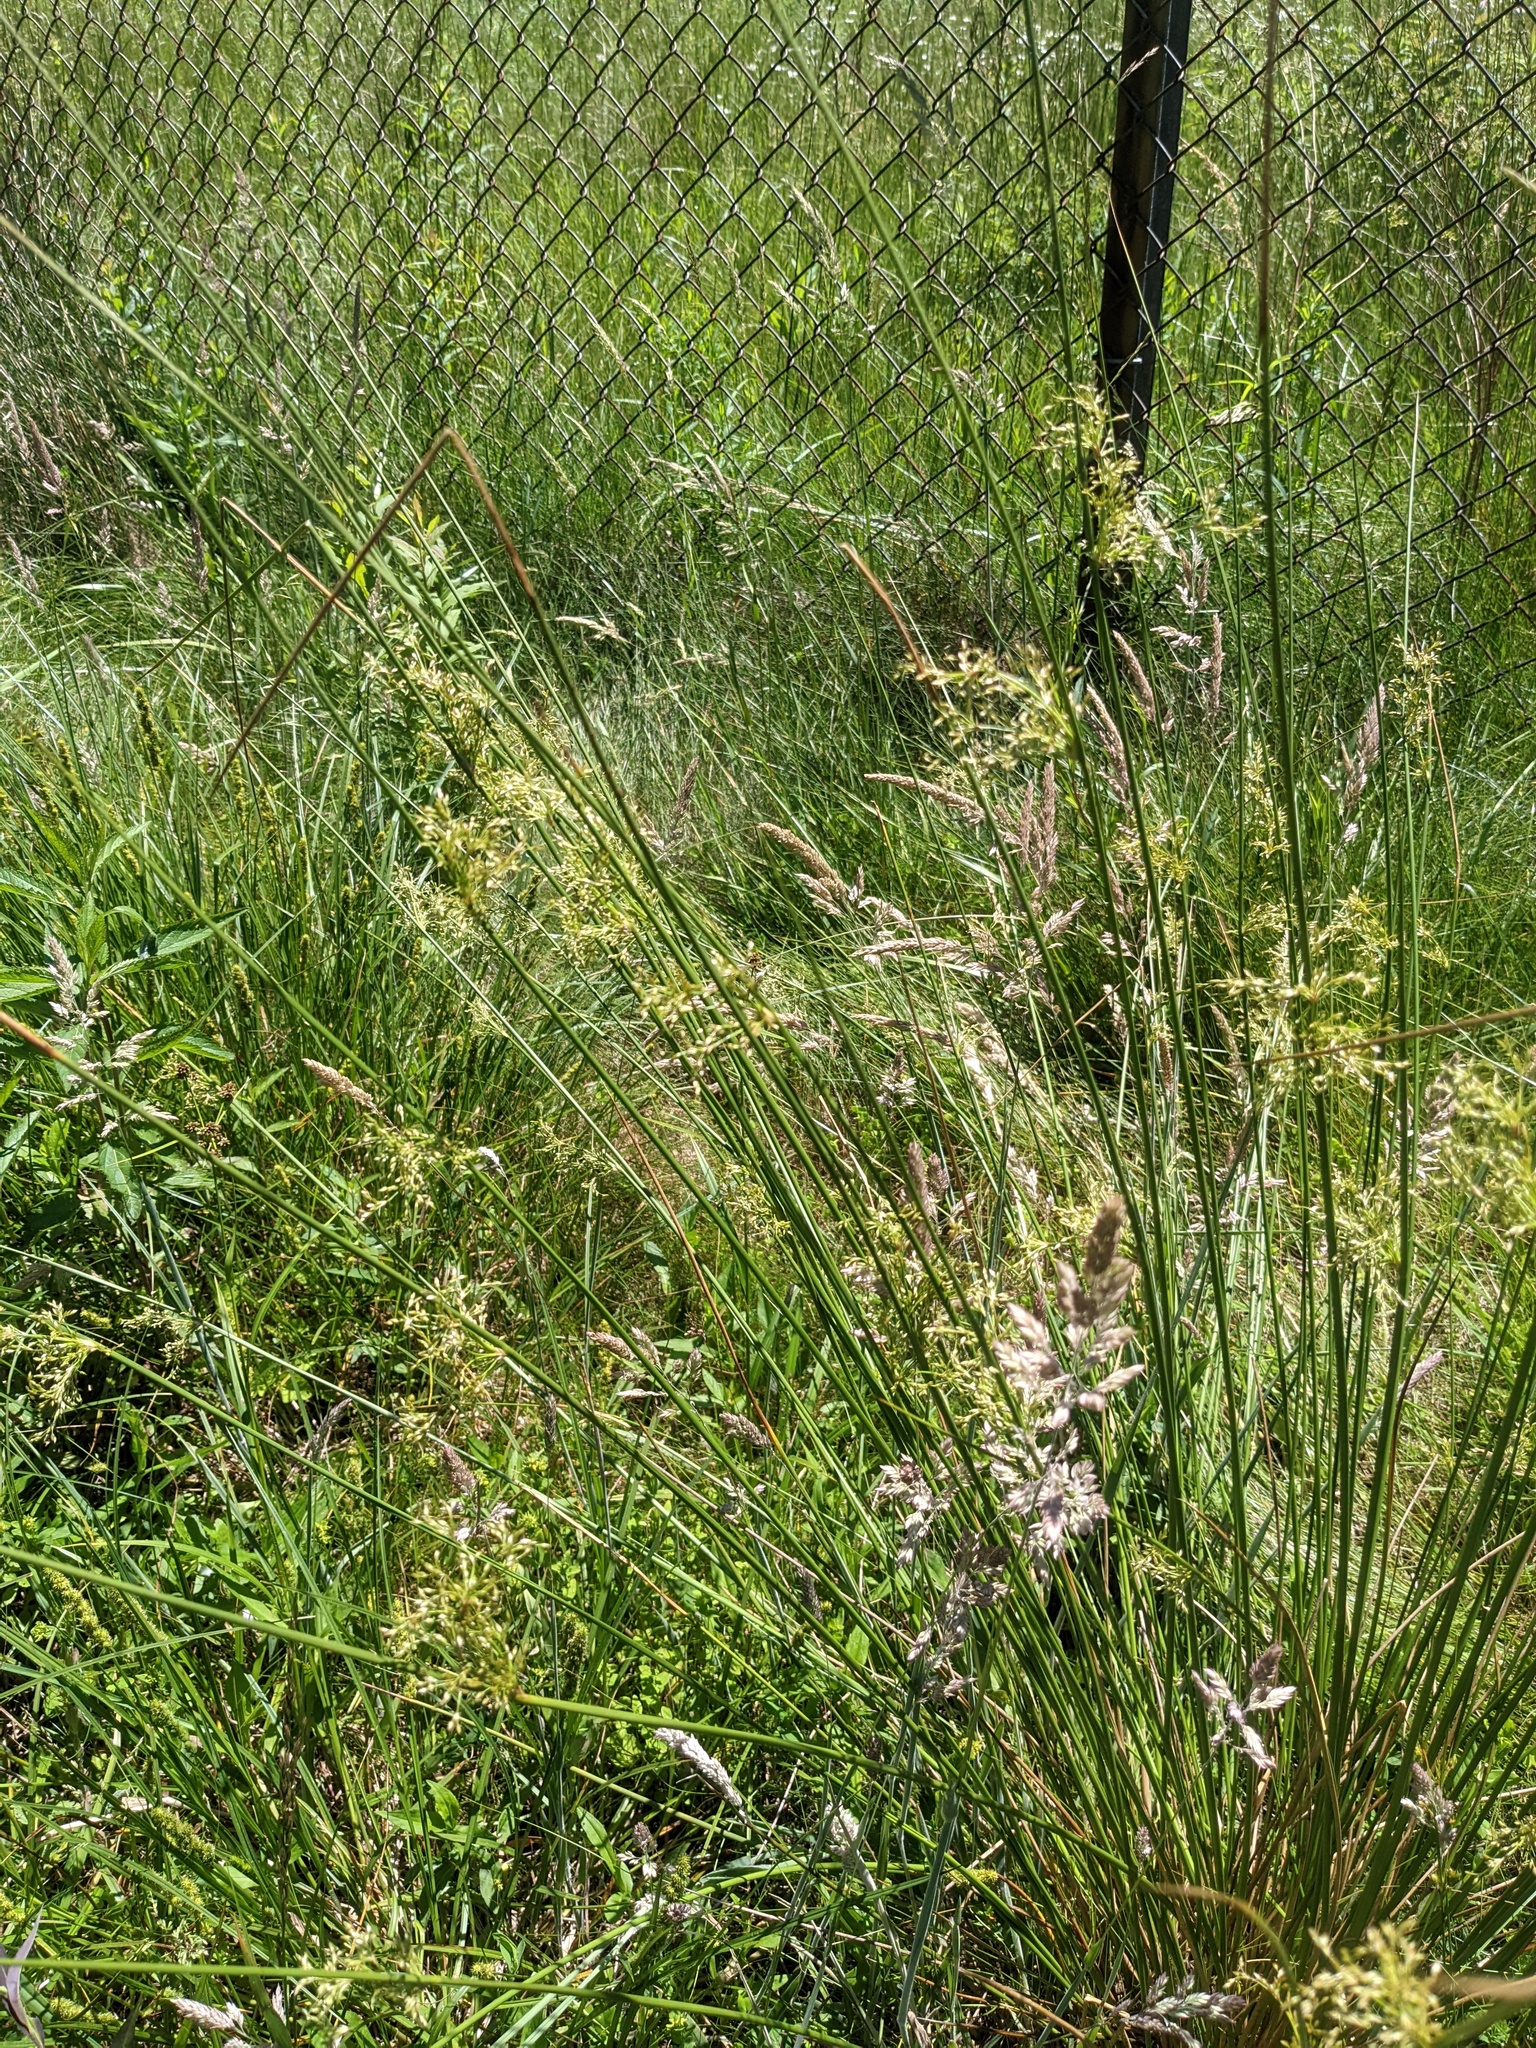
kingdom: Plantae
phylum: Tracheophyta
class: Liliopsida
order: Poales
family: Juncaceae
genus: Juncus
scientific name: Juncus effusus
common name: Soft rush
